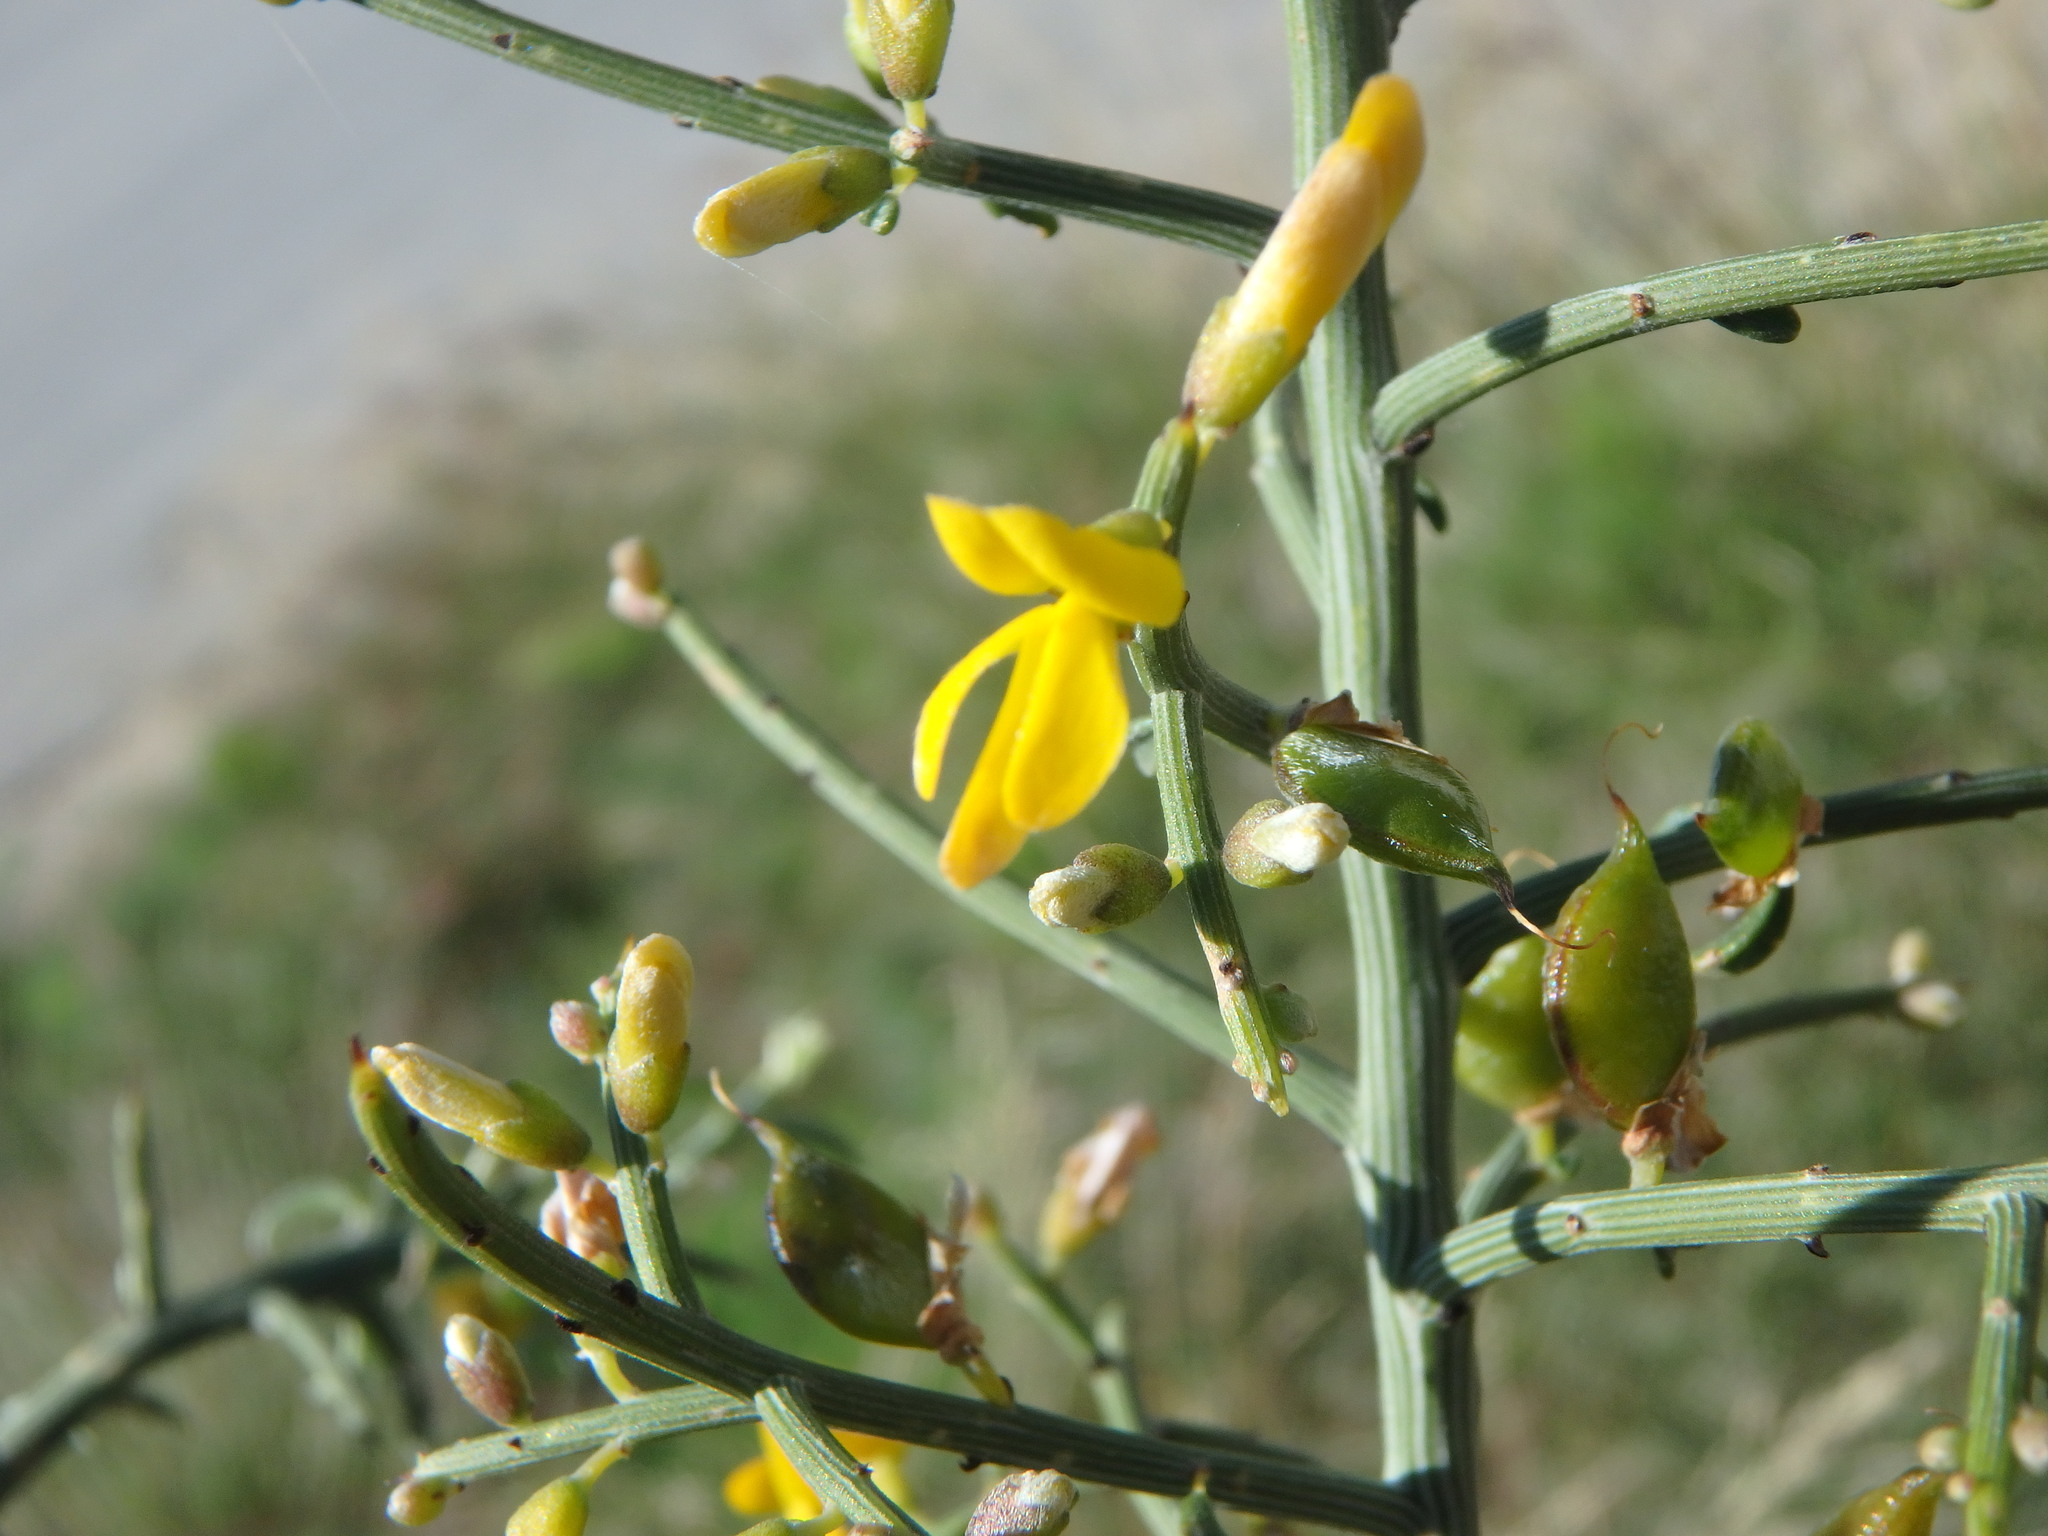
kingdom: Plantae
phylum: Tracheophyta
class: Magnoliopsida
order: Fabales
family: Fabaceae
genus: Genista
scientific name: Genista fasselata
